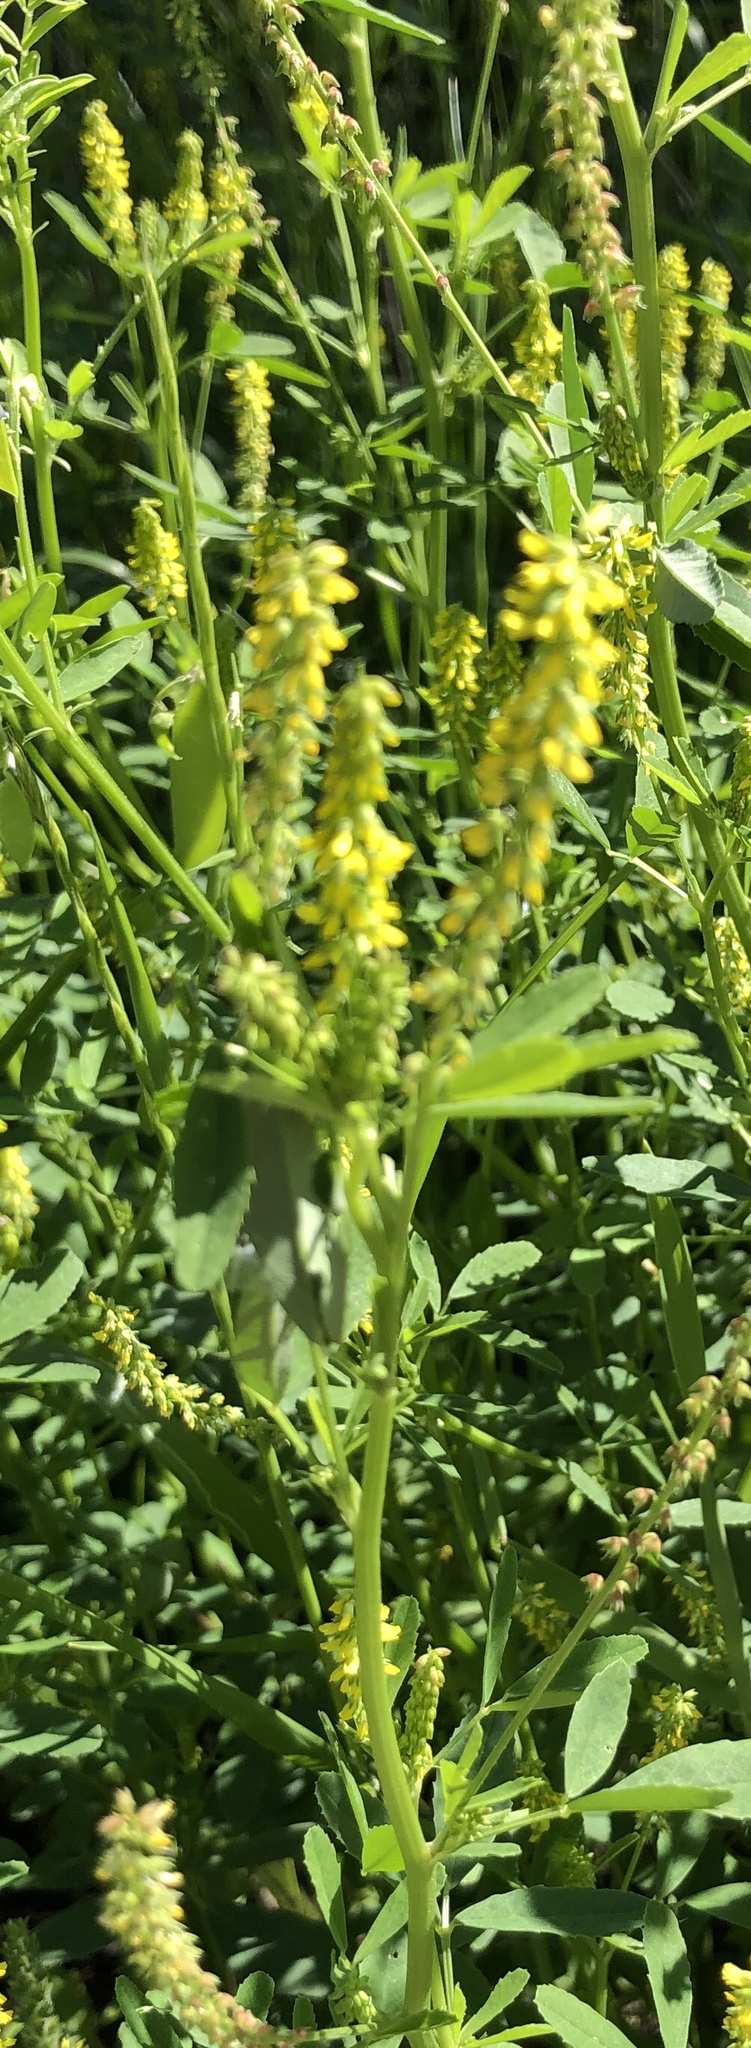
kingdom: Plantae
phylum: Tracheophyta
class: Magnoliopsida
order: Fabales
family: Fabaceae
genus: Melilotus
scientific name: Melilotus indicus
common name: Small melilot
